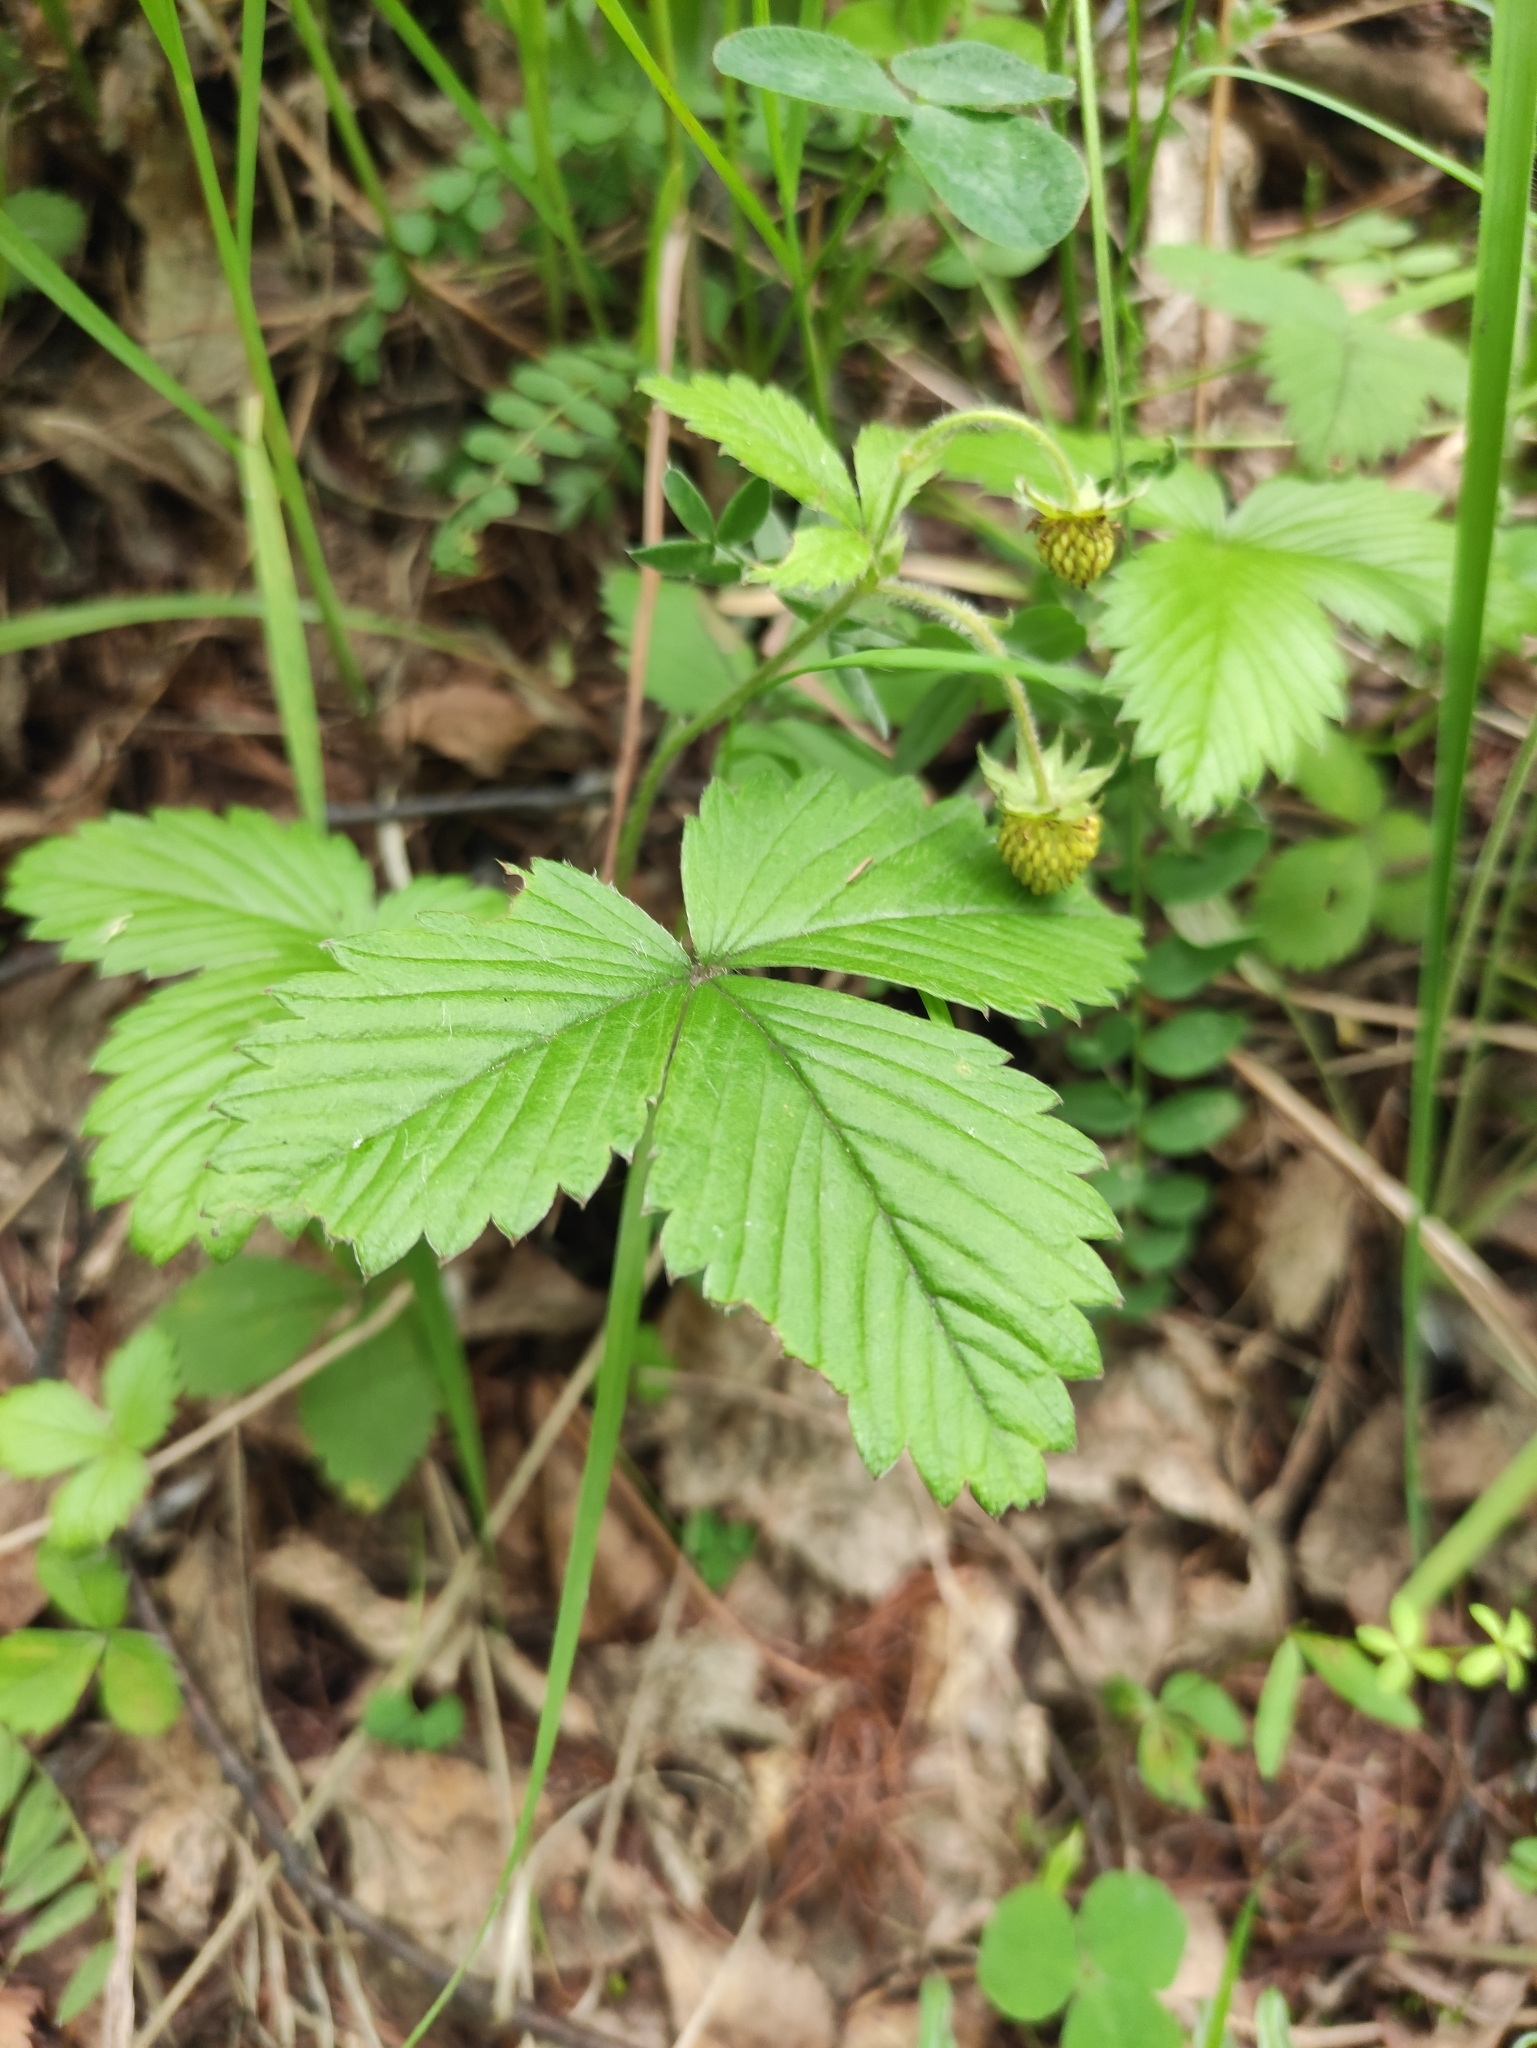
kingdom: Plantae
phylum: Tracheophyta
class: Magnoliopsida
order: Rosales
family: Rosaceae
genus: Fragaria
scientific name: Fragaria vesca
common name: Wild strawberry
